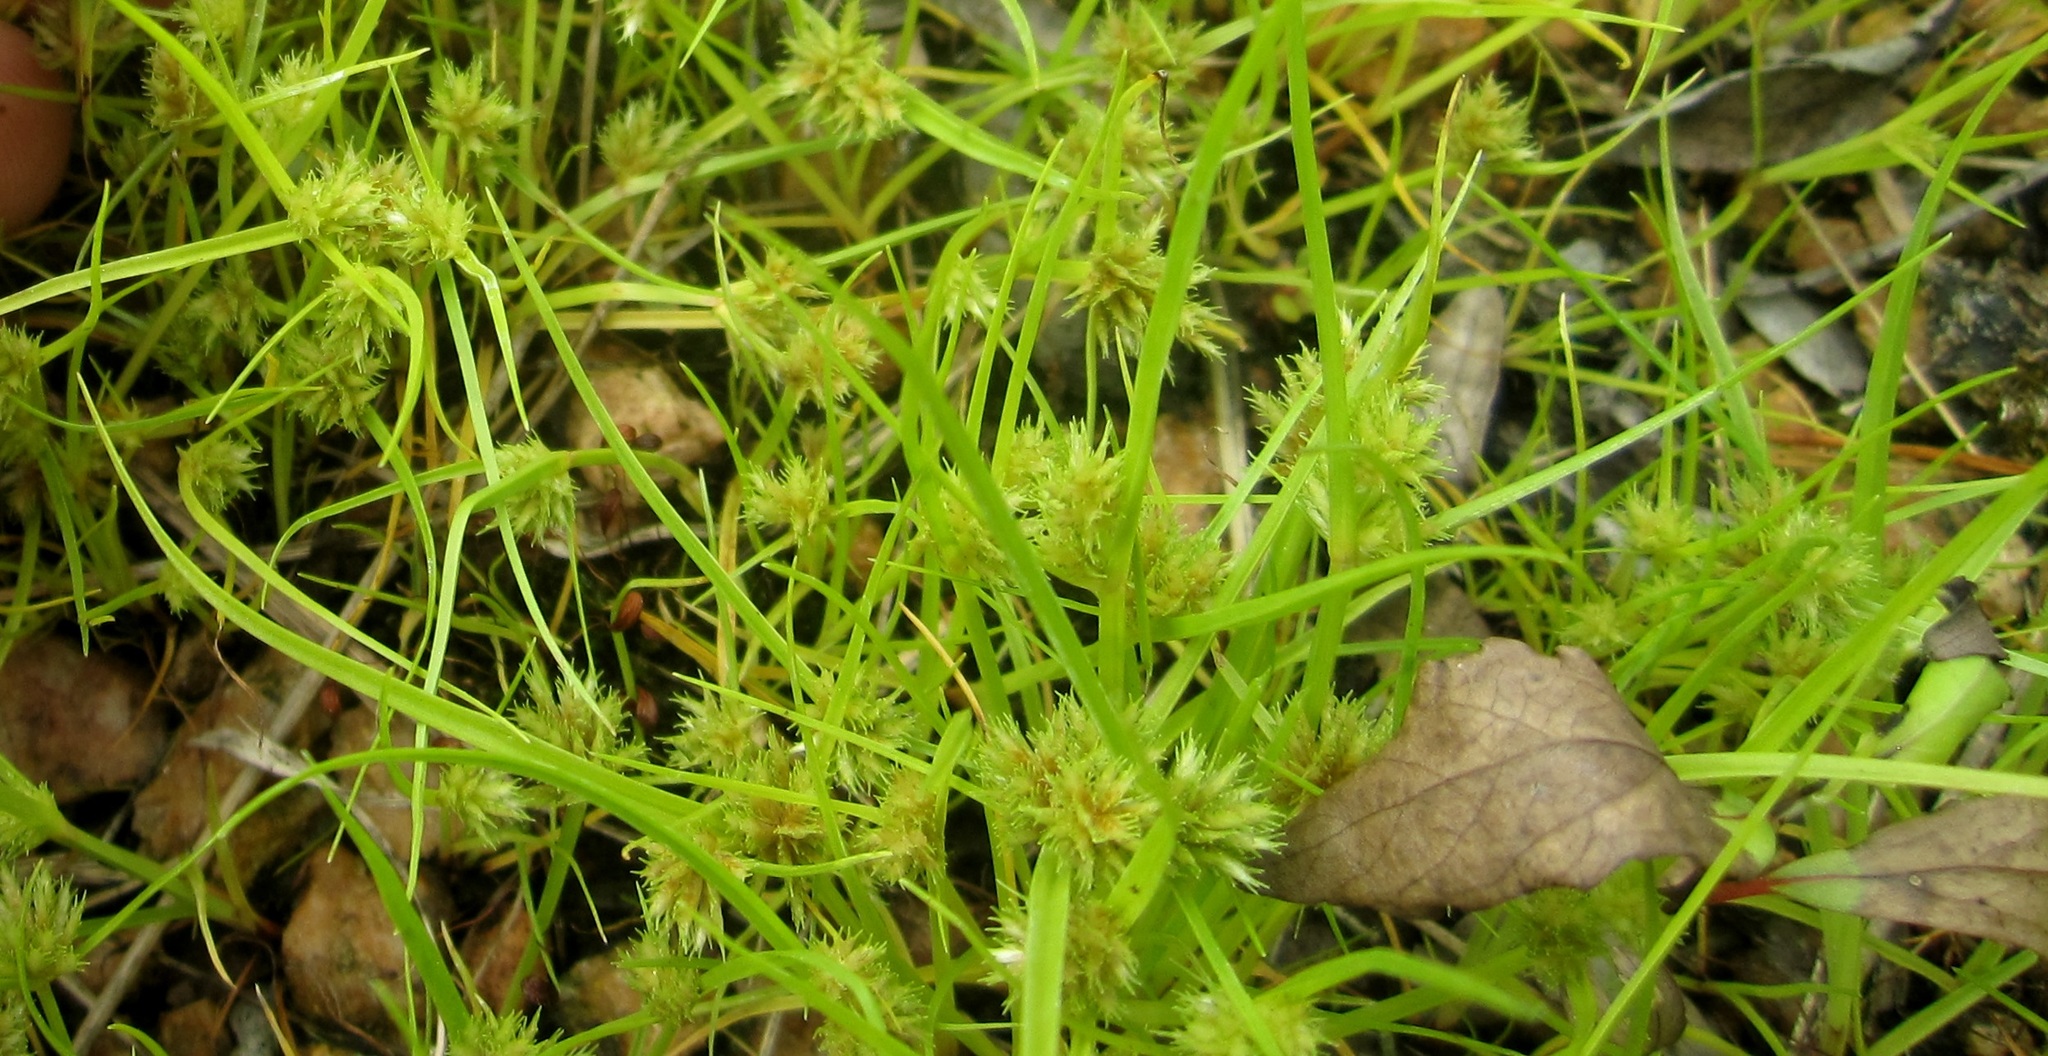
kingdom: Plantae
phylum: Tracheophyta
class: Liliopsida
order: Poales
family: Cyperaceae
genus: Cyperus
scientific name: Cyperus squarrosus
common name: Awned cyperus
